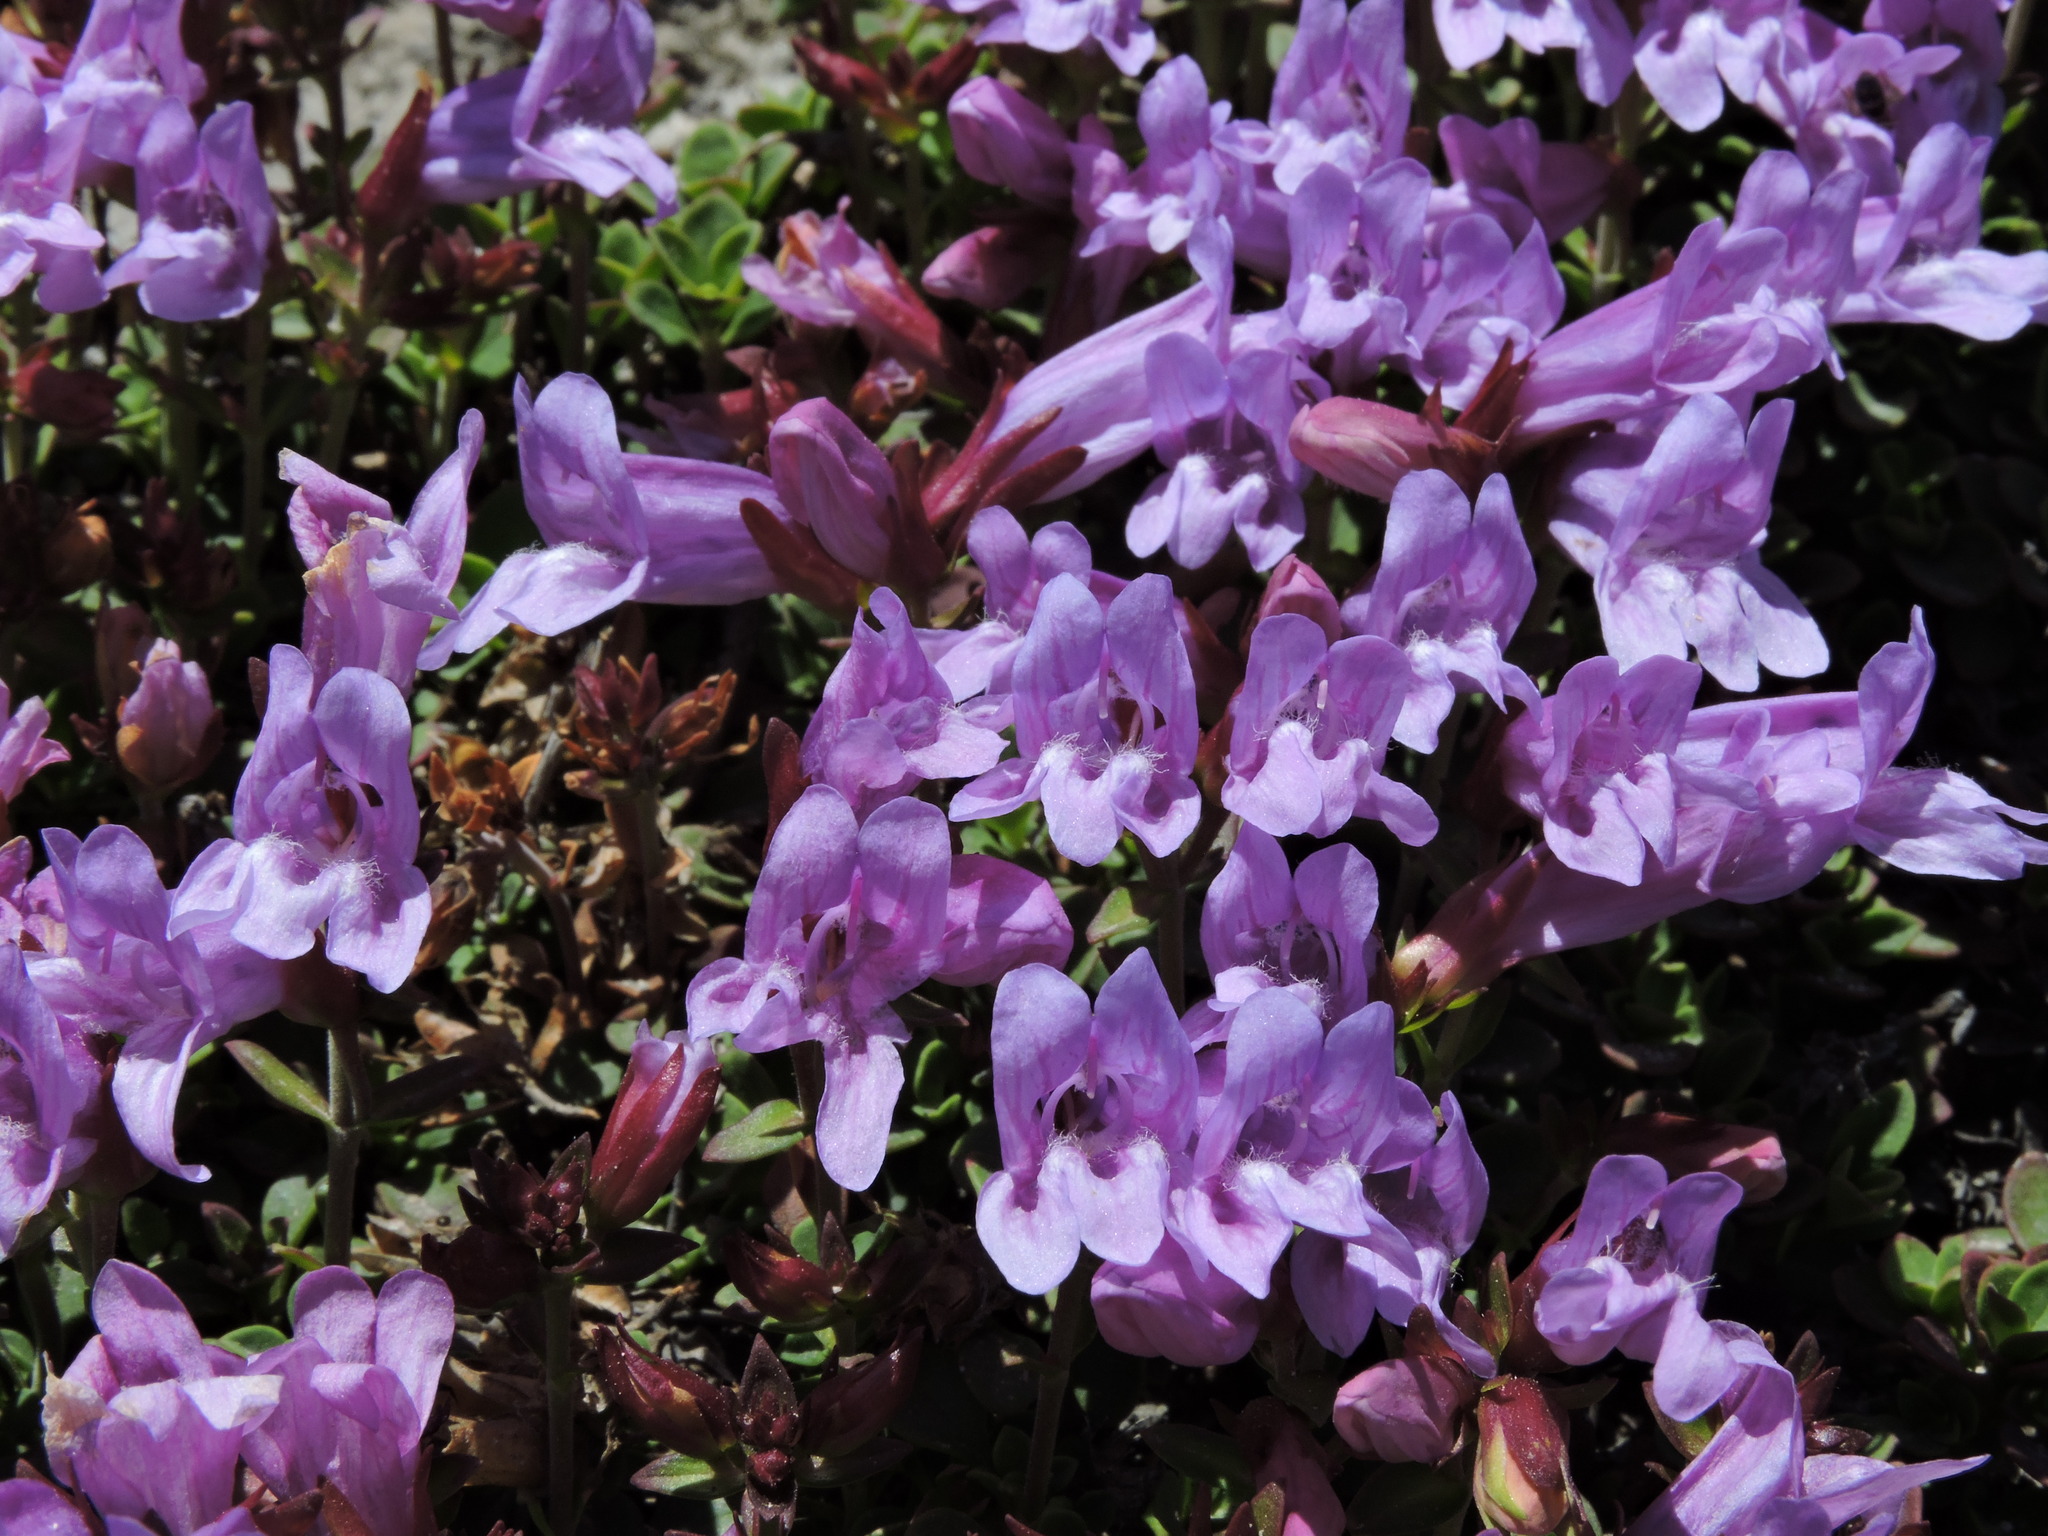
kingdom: Plantae
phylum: Tracheophyta
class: Magnoliopsida
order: Lamiales
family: Plantaginaceae
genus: Penstemon
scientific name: Penstemon davidsonii
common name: Davidson's penstemon
